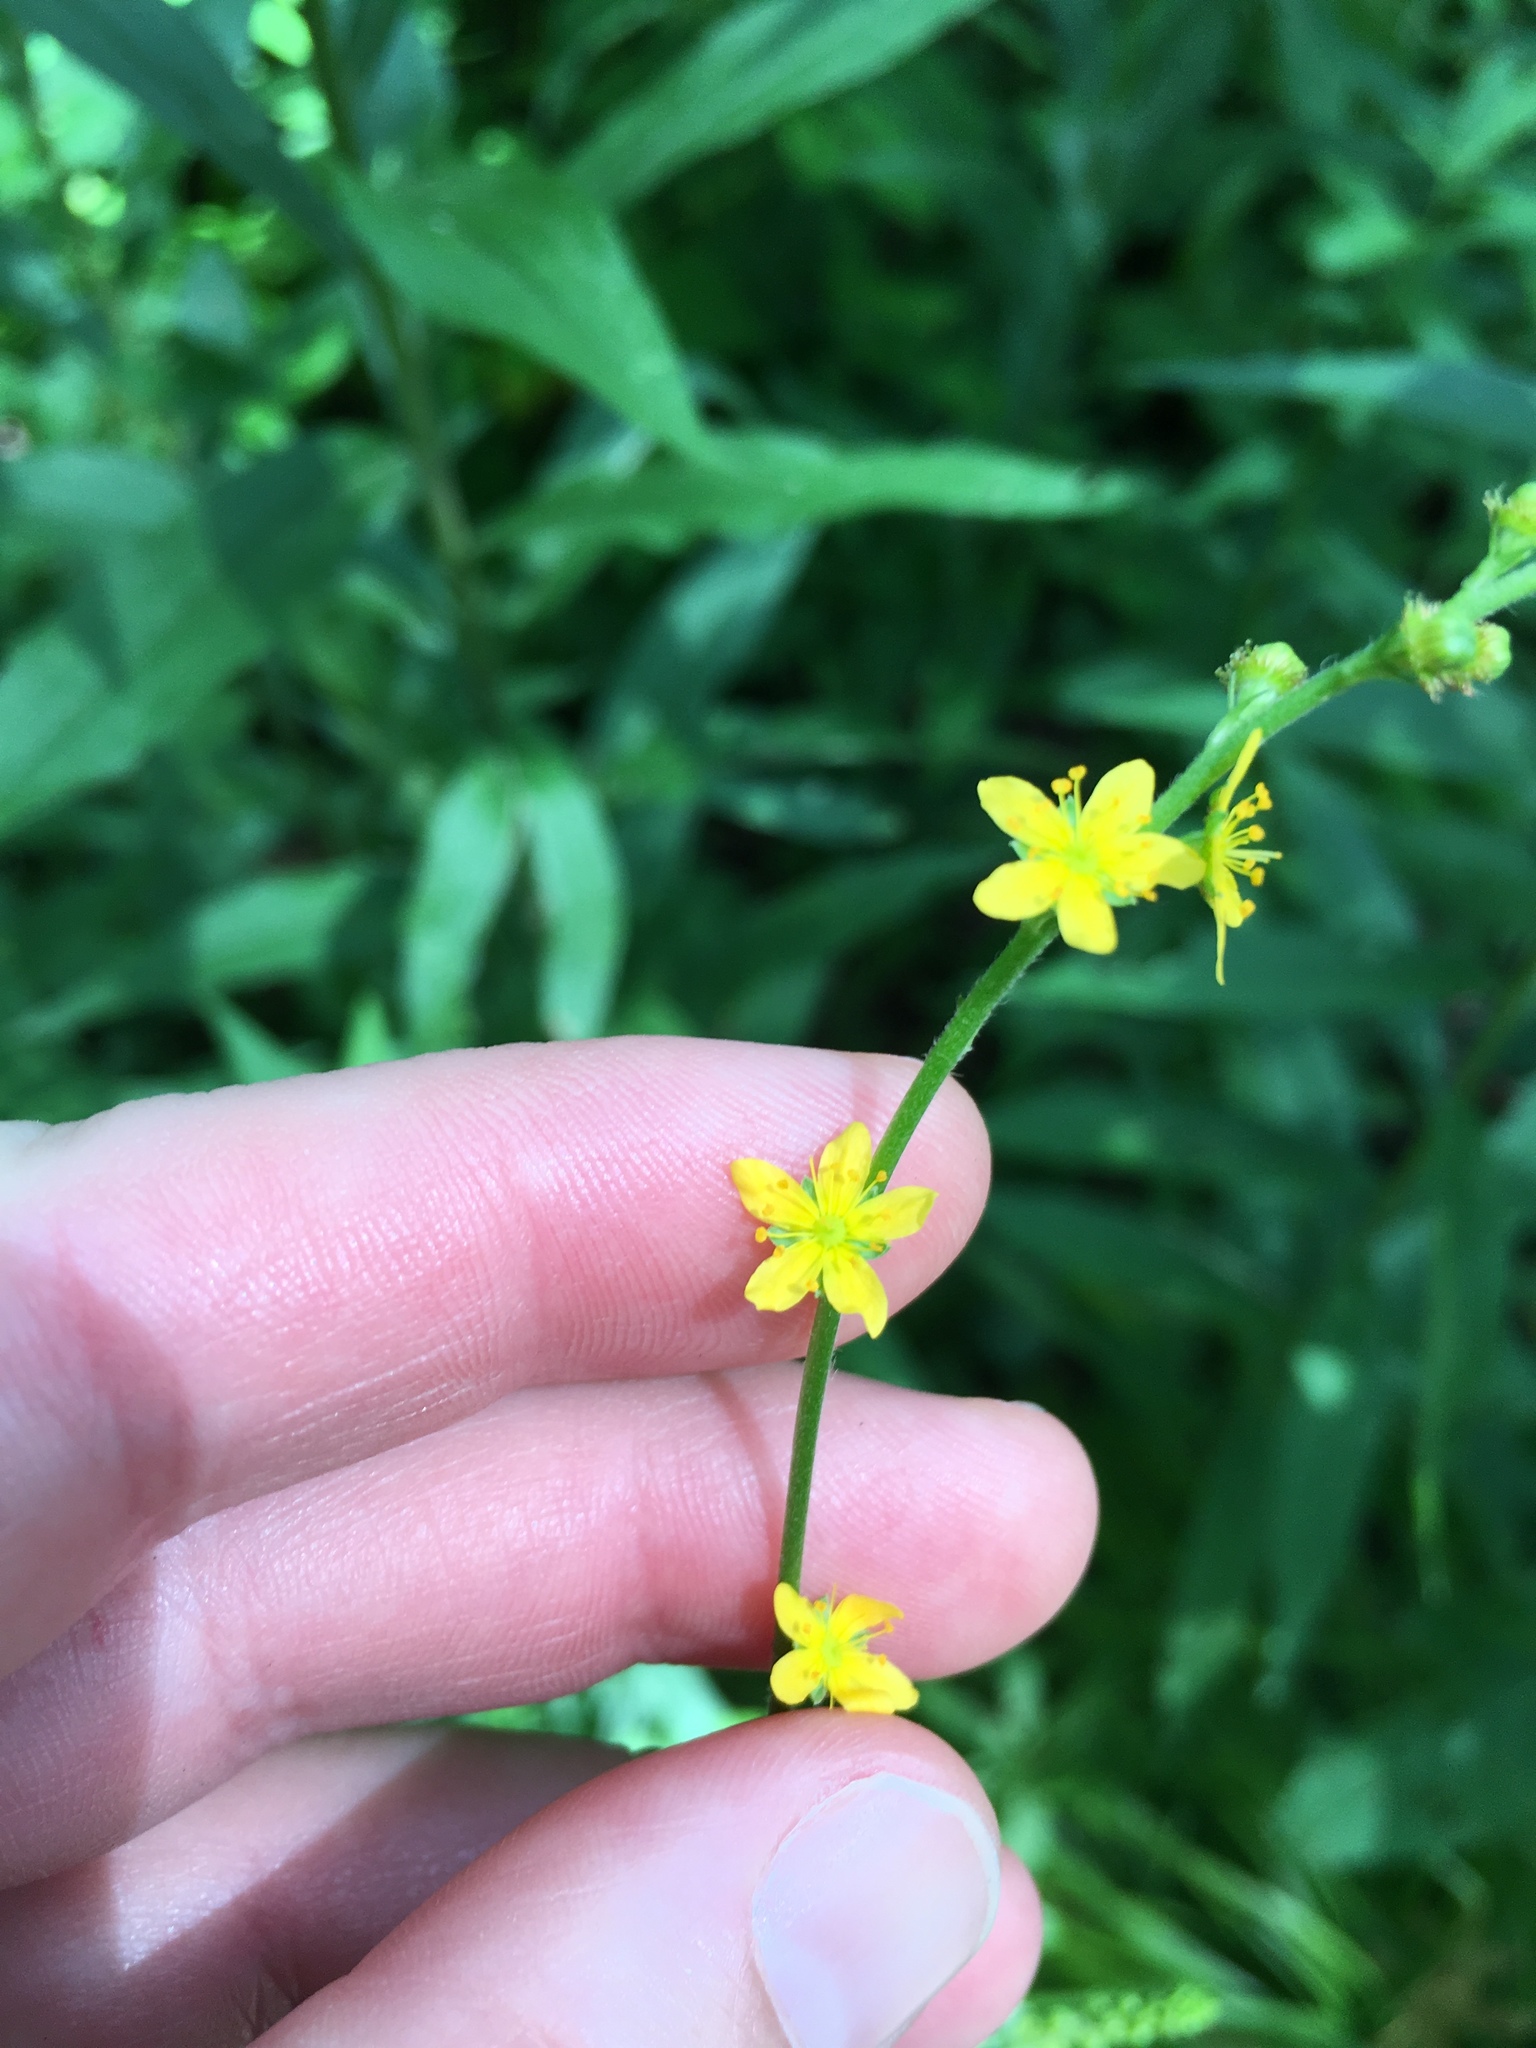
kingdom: Plantae
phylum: Tracheophyta
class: Magnoliopsida
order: Rosales
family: Rosaceae
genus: Agrimonia
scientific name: Agrimonia gryposepala
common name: Common agrimony
